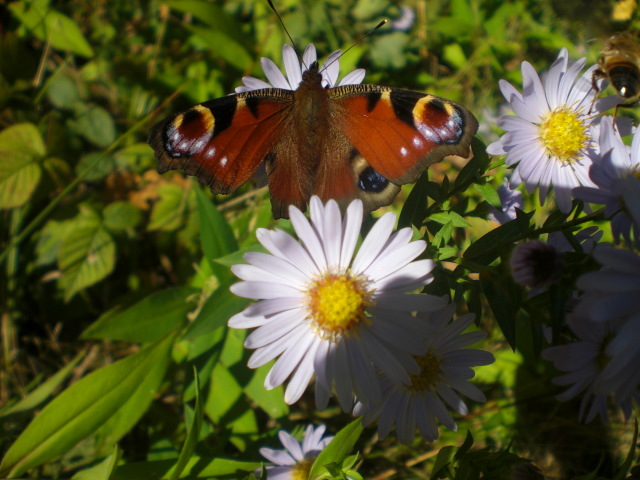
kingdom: Animalia
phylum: Arthropoda
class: Insecta
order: Lepidoptera
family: Nymphalidae
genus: Aglais
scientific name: Aglais io
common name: Peacock
